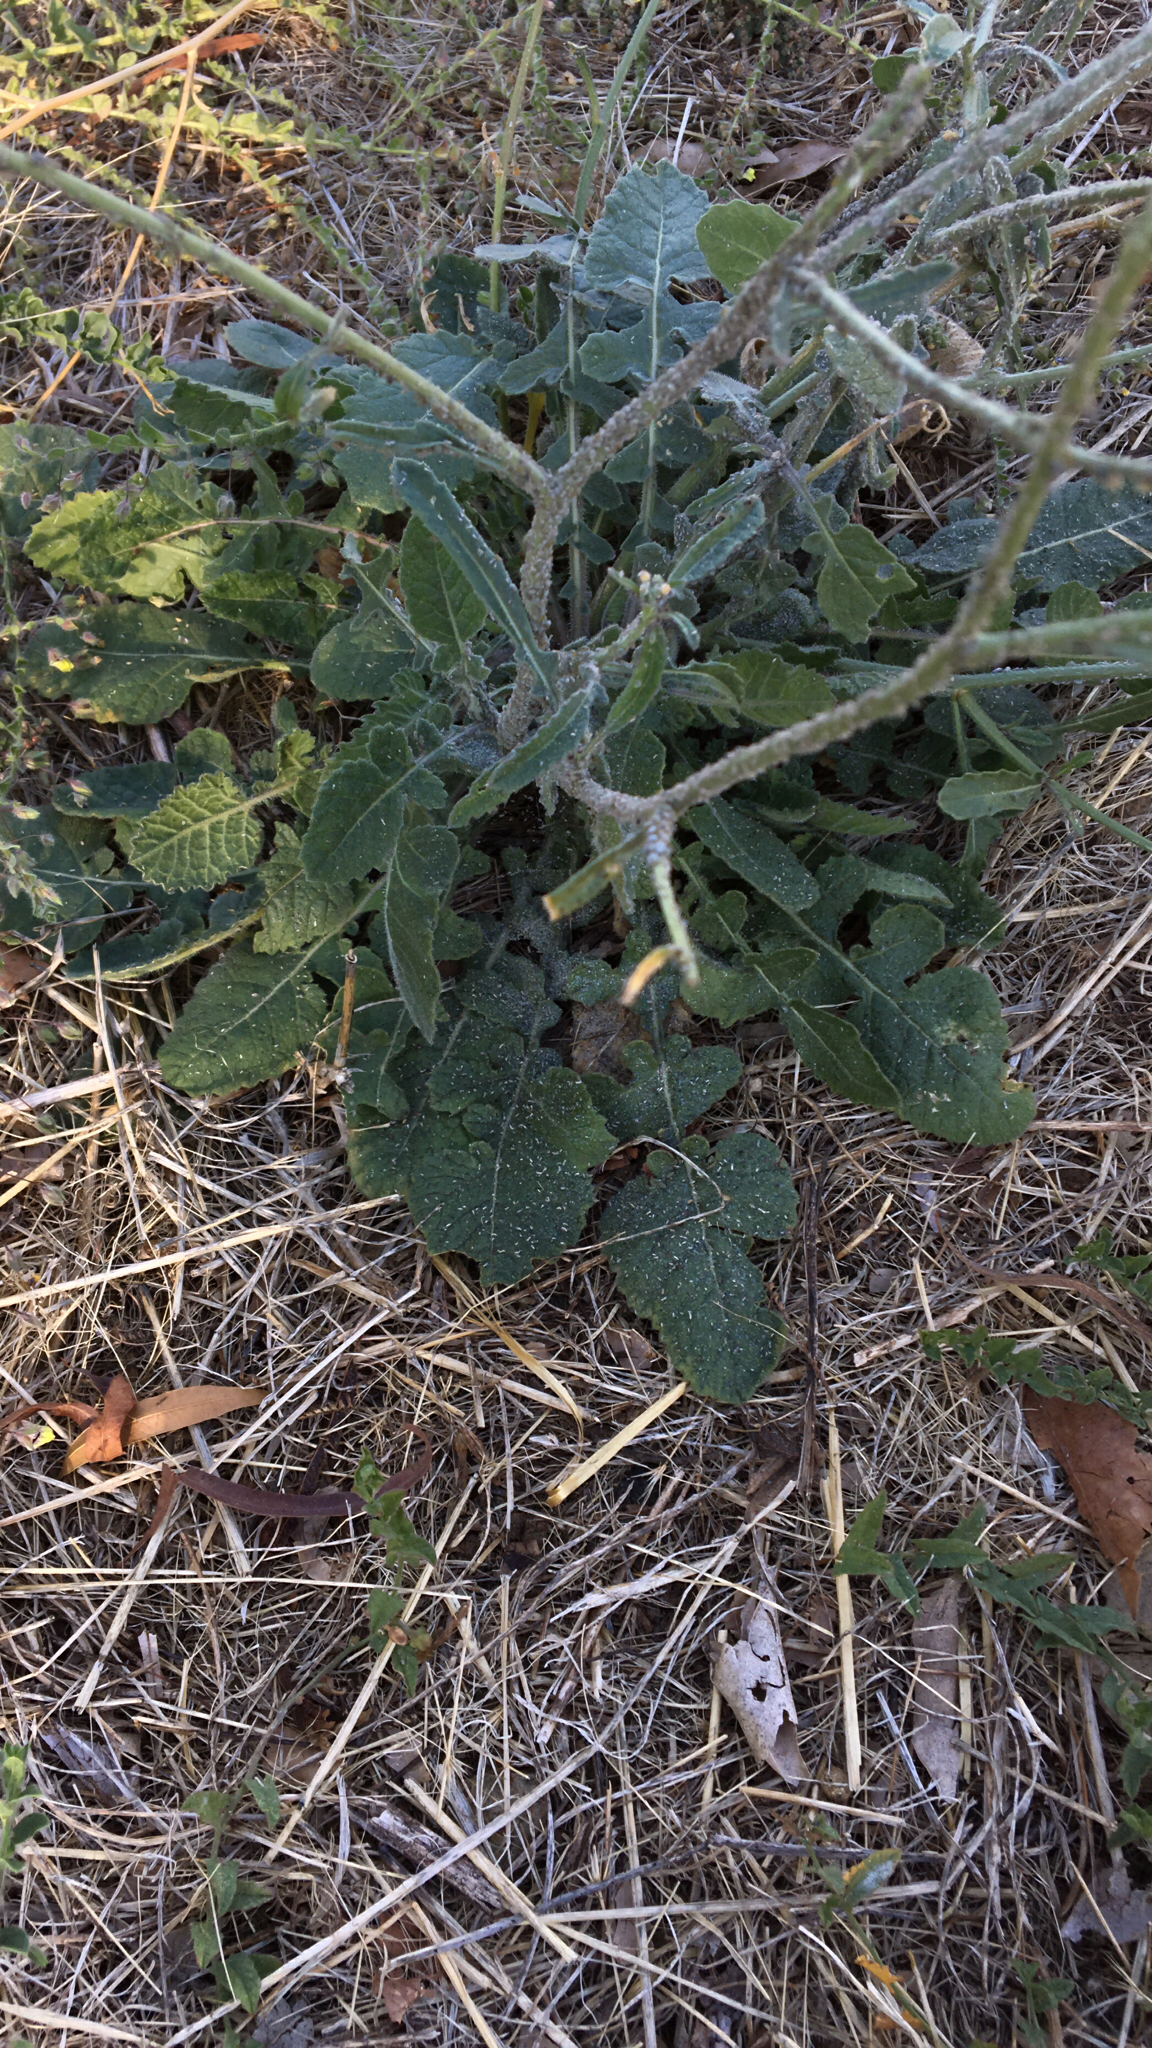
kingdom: Plantae
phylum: Tracheophyta
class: Magnoliopsida
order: Brassicales
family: Brassicaceae
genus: Hirschfeldia
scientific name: Hirschfeldia incana
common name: Hoary mustard
